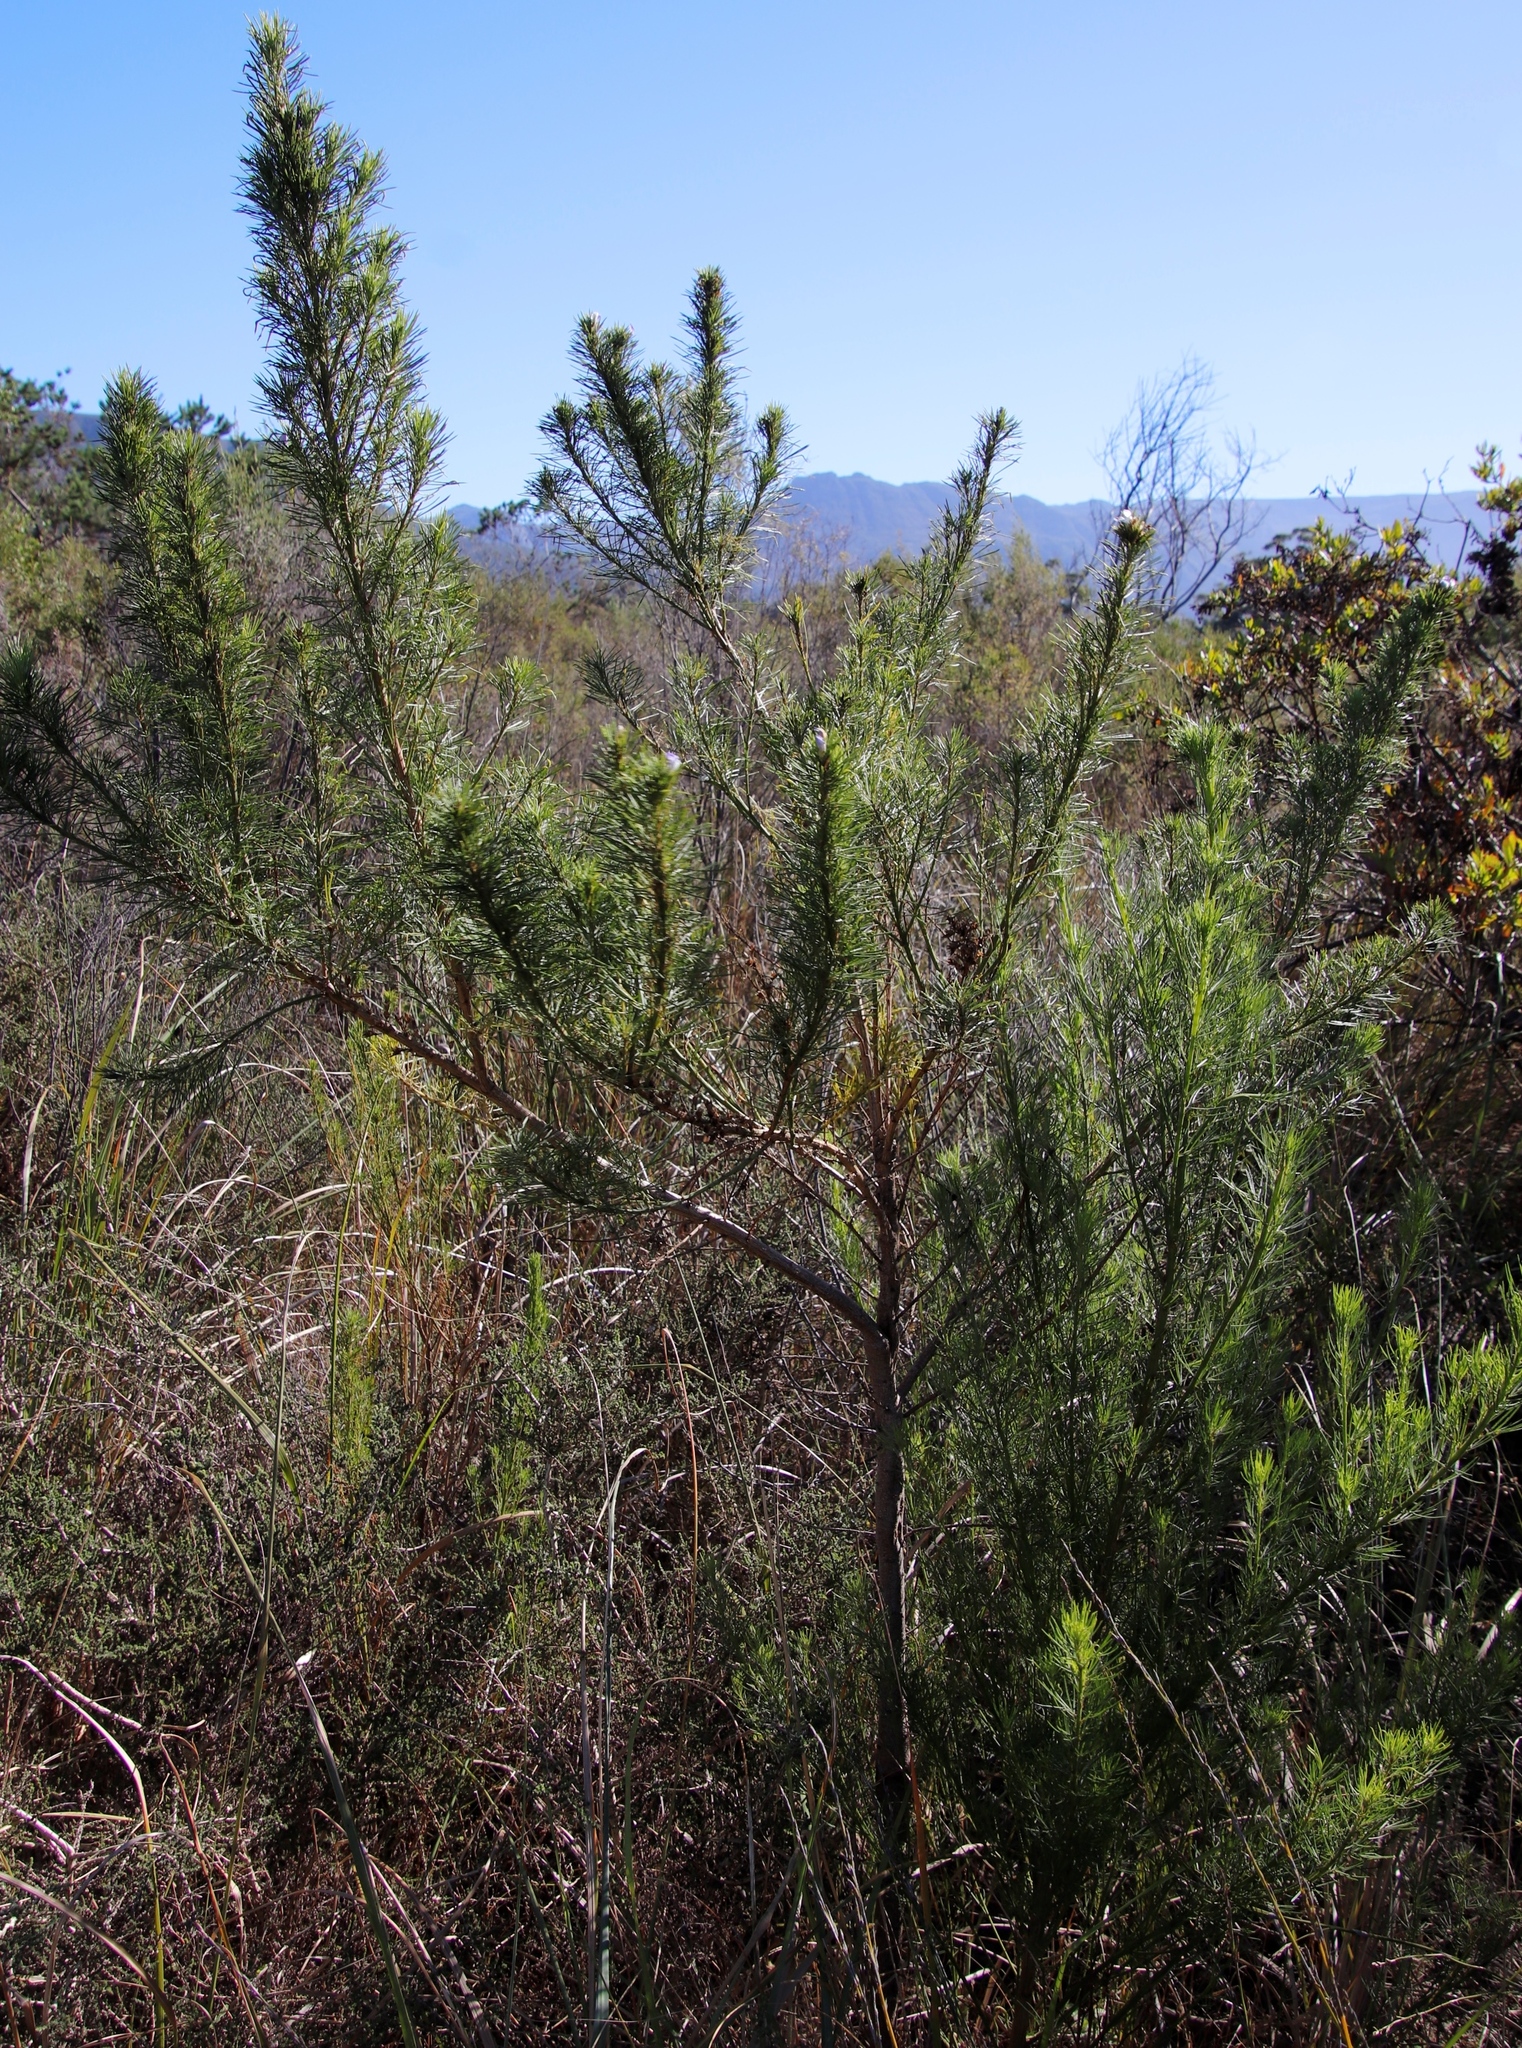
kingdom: Plantae
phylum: Tracheophyta
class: Magnoliopsida
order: Fabales
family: Fabaceae
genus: Psoralea
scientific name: Psoralea pinnata
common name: African scurfpea
